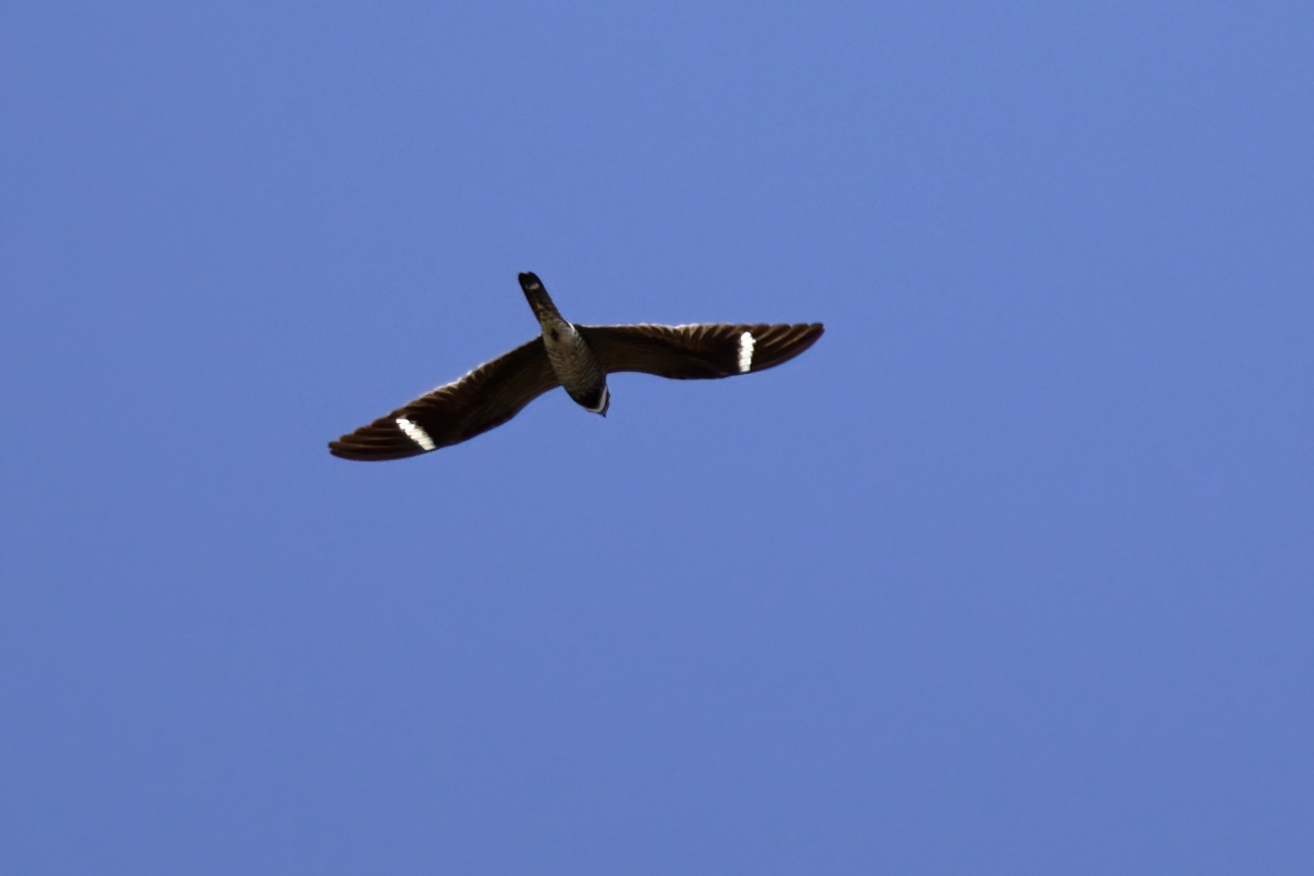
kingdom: Animalia
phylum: Chordata
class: Aves
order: Caprimulgiformes
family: Caprimulgidae
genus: Chordeiles
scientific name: Chordeiles minor
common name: Common nighthawk
